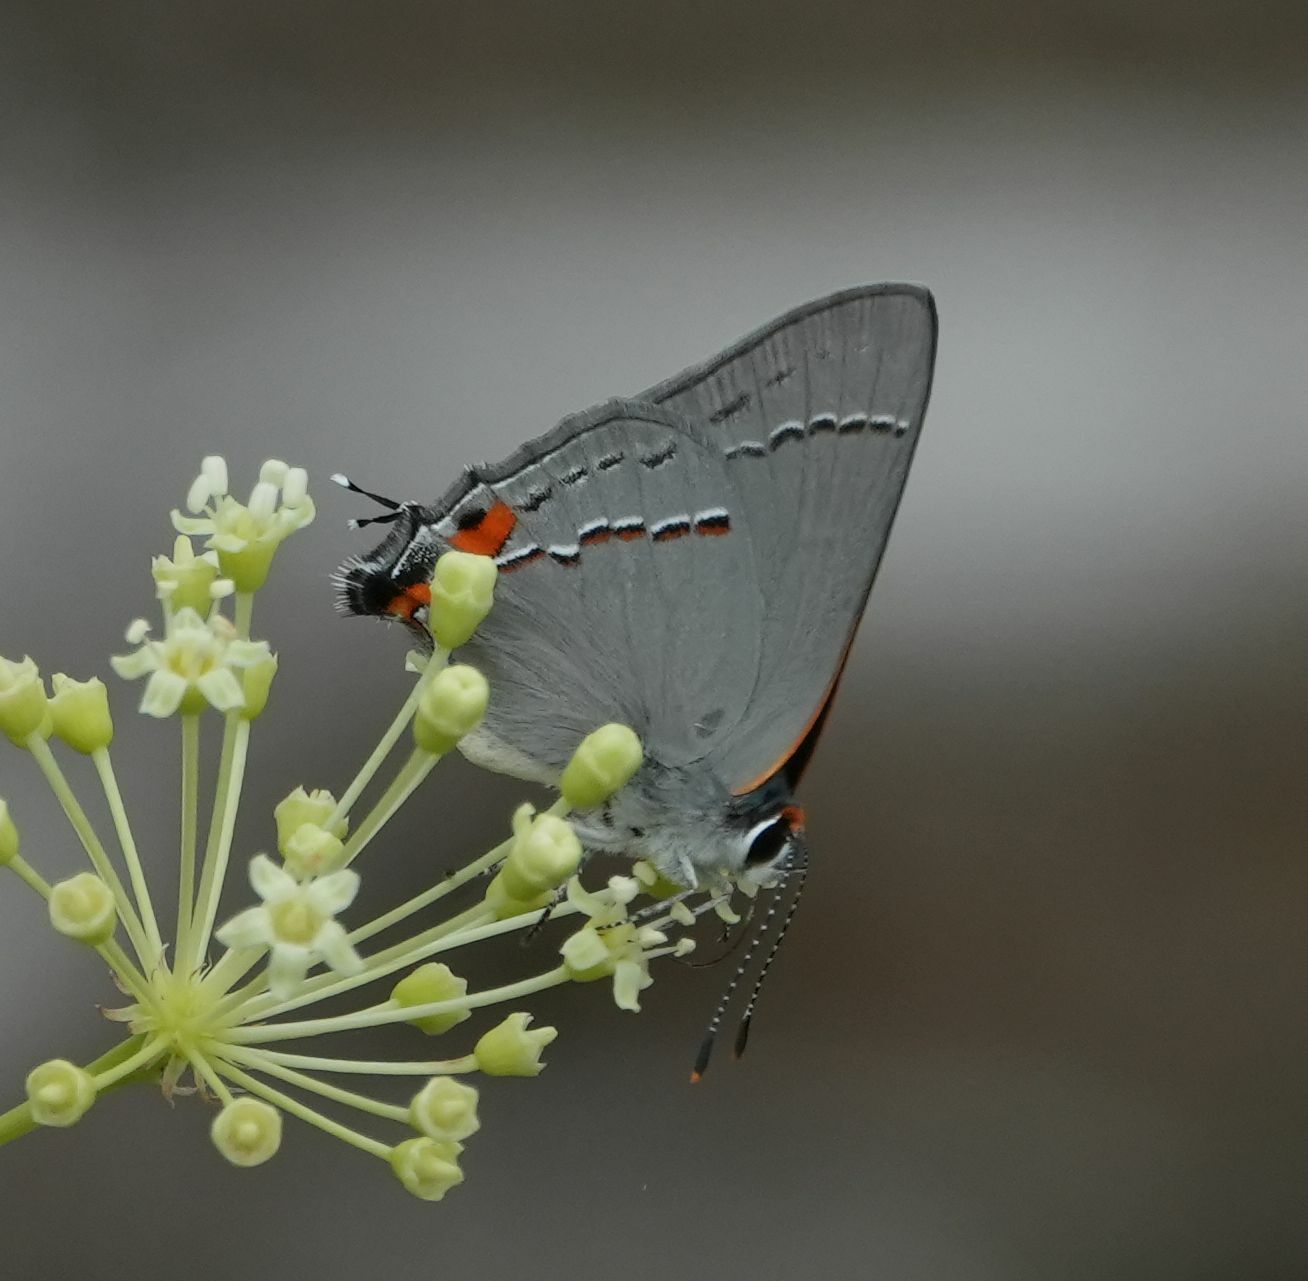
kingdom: Animalia
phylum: Arthropoda
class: Insecta
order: Lepidoptera
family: Lycaenidae
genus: Strymon
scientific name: Strymon melinus
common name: Gray hairstreak
